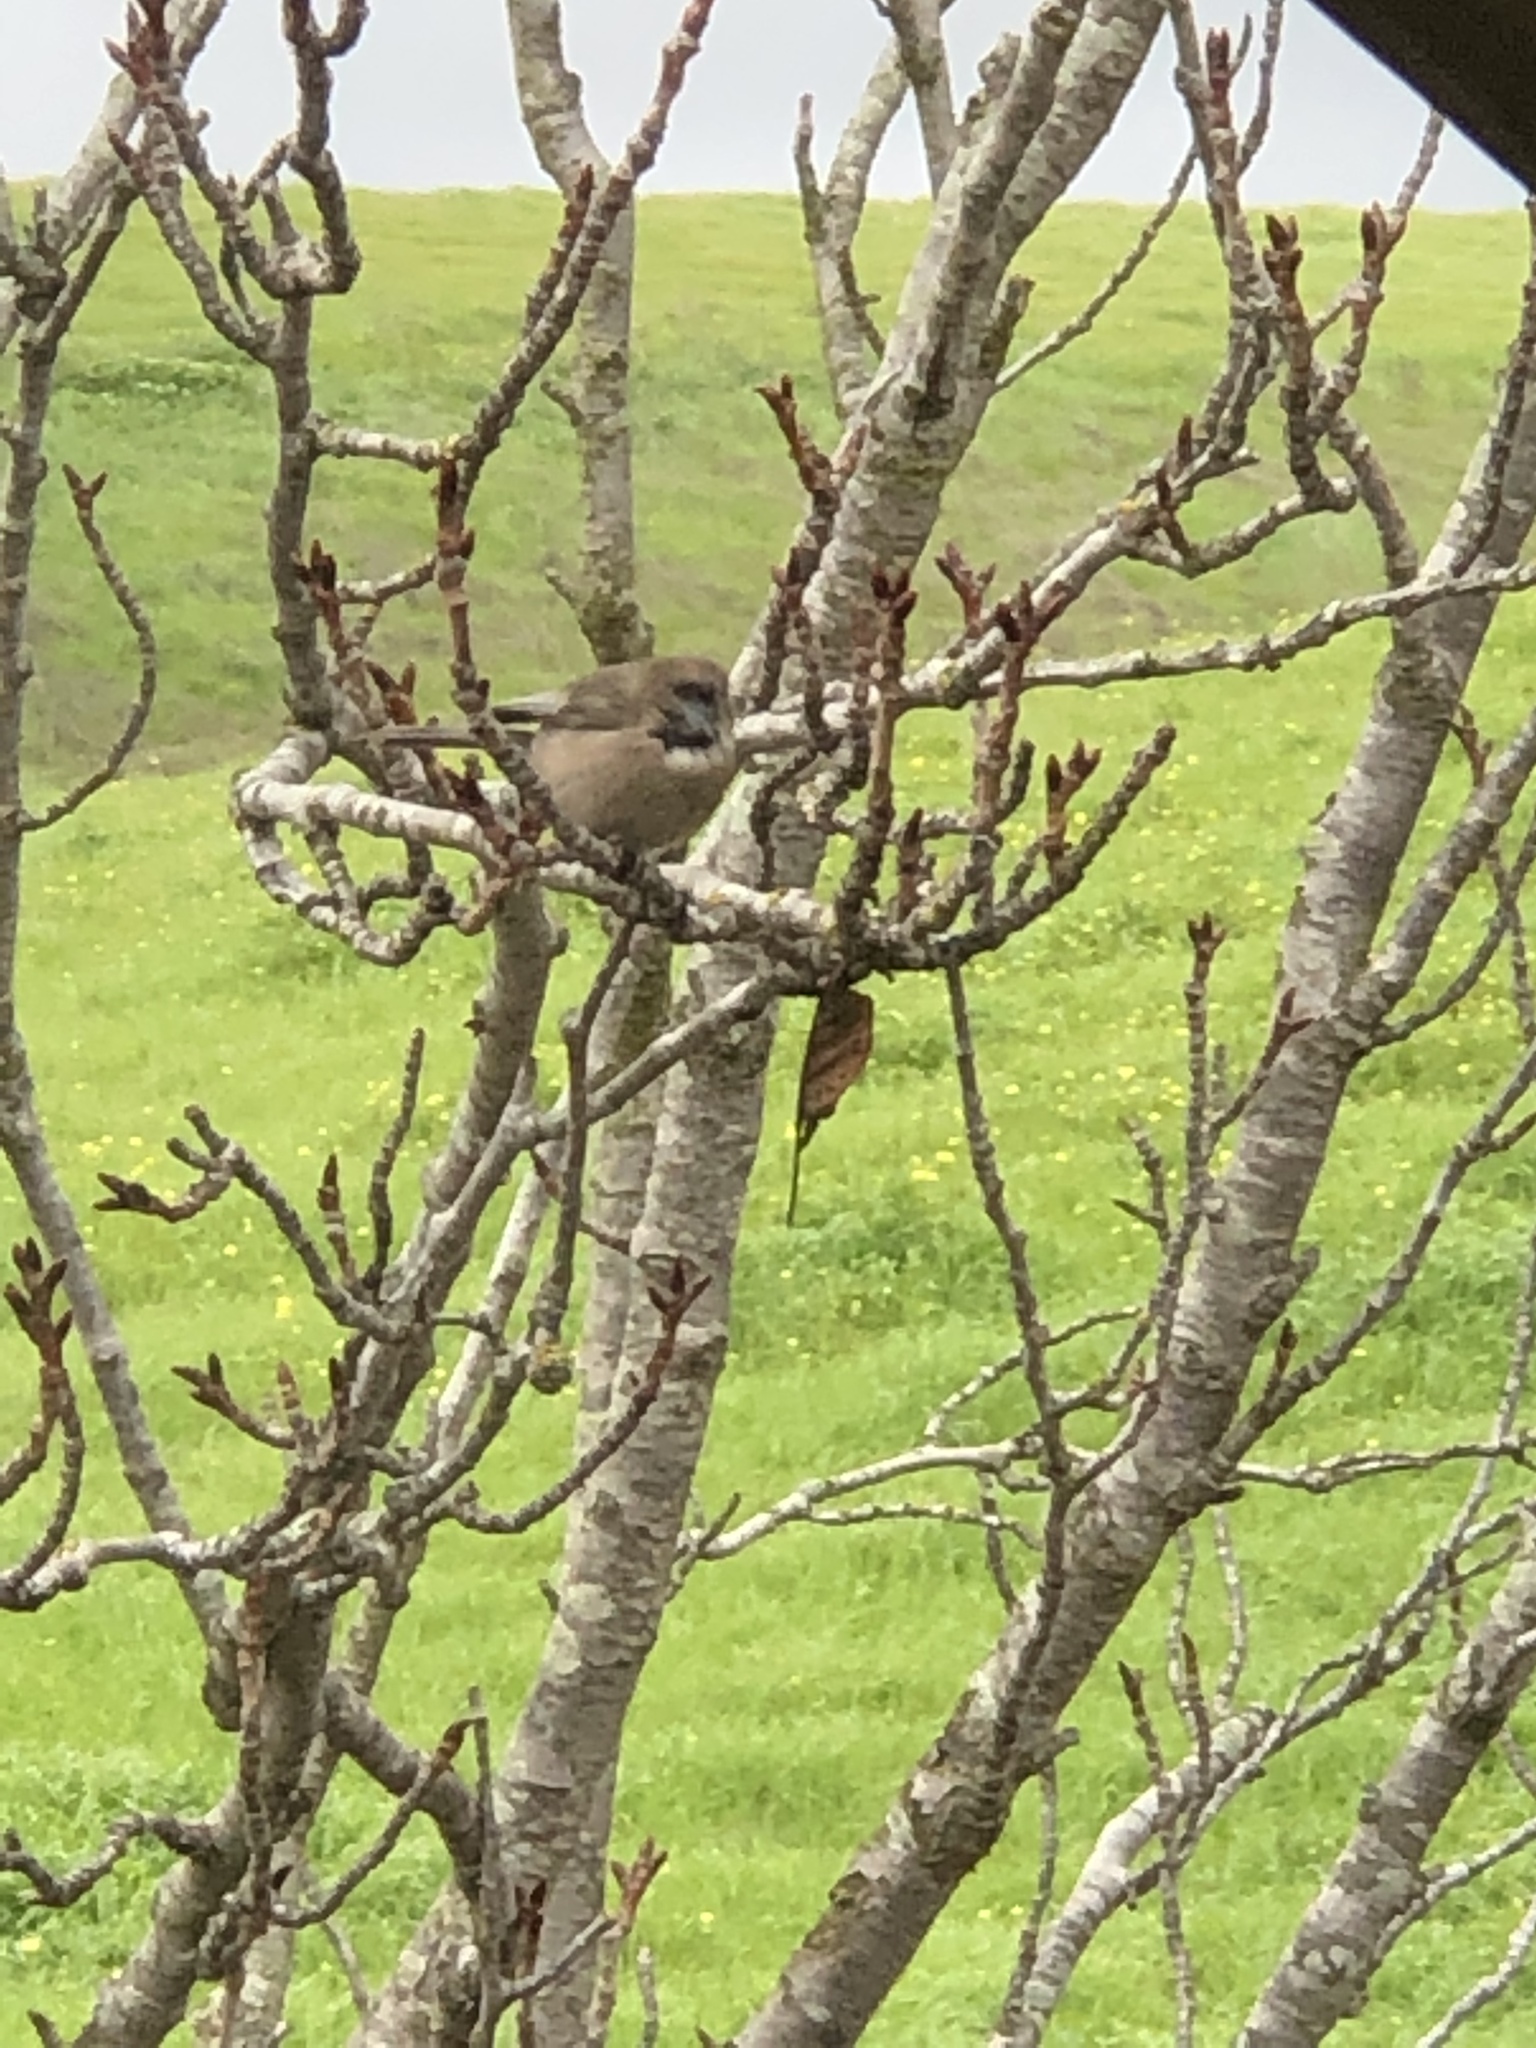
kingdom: Animalia
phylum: Chordata
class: Aves
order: Passeriformes
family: Aegithalidae
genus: Psaltriparus
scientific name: Psaltriparus minimus
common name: American bushtit
